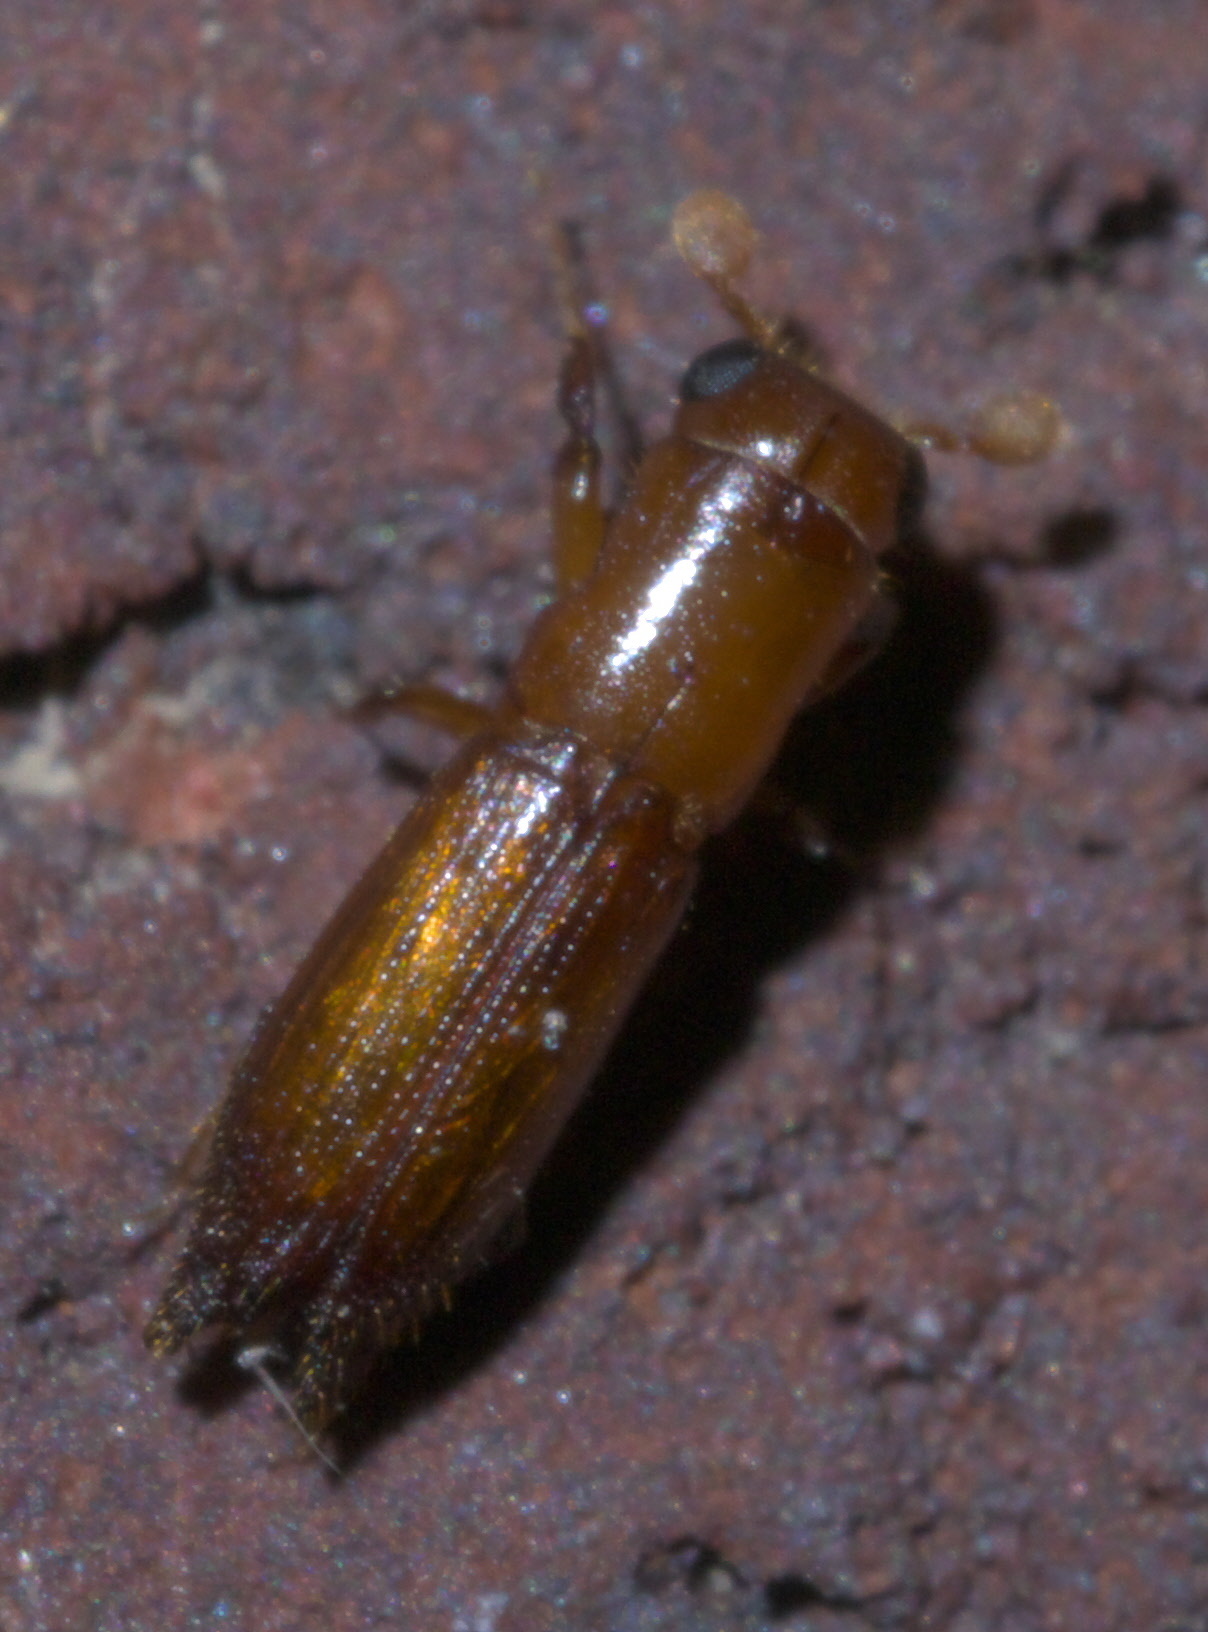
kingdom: Animalia
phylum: Arthropoda
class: Insecta
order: Coleoptera
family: Curculionidae
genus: Euplatypus
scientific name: Euplatypus compositus
